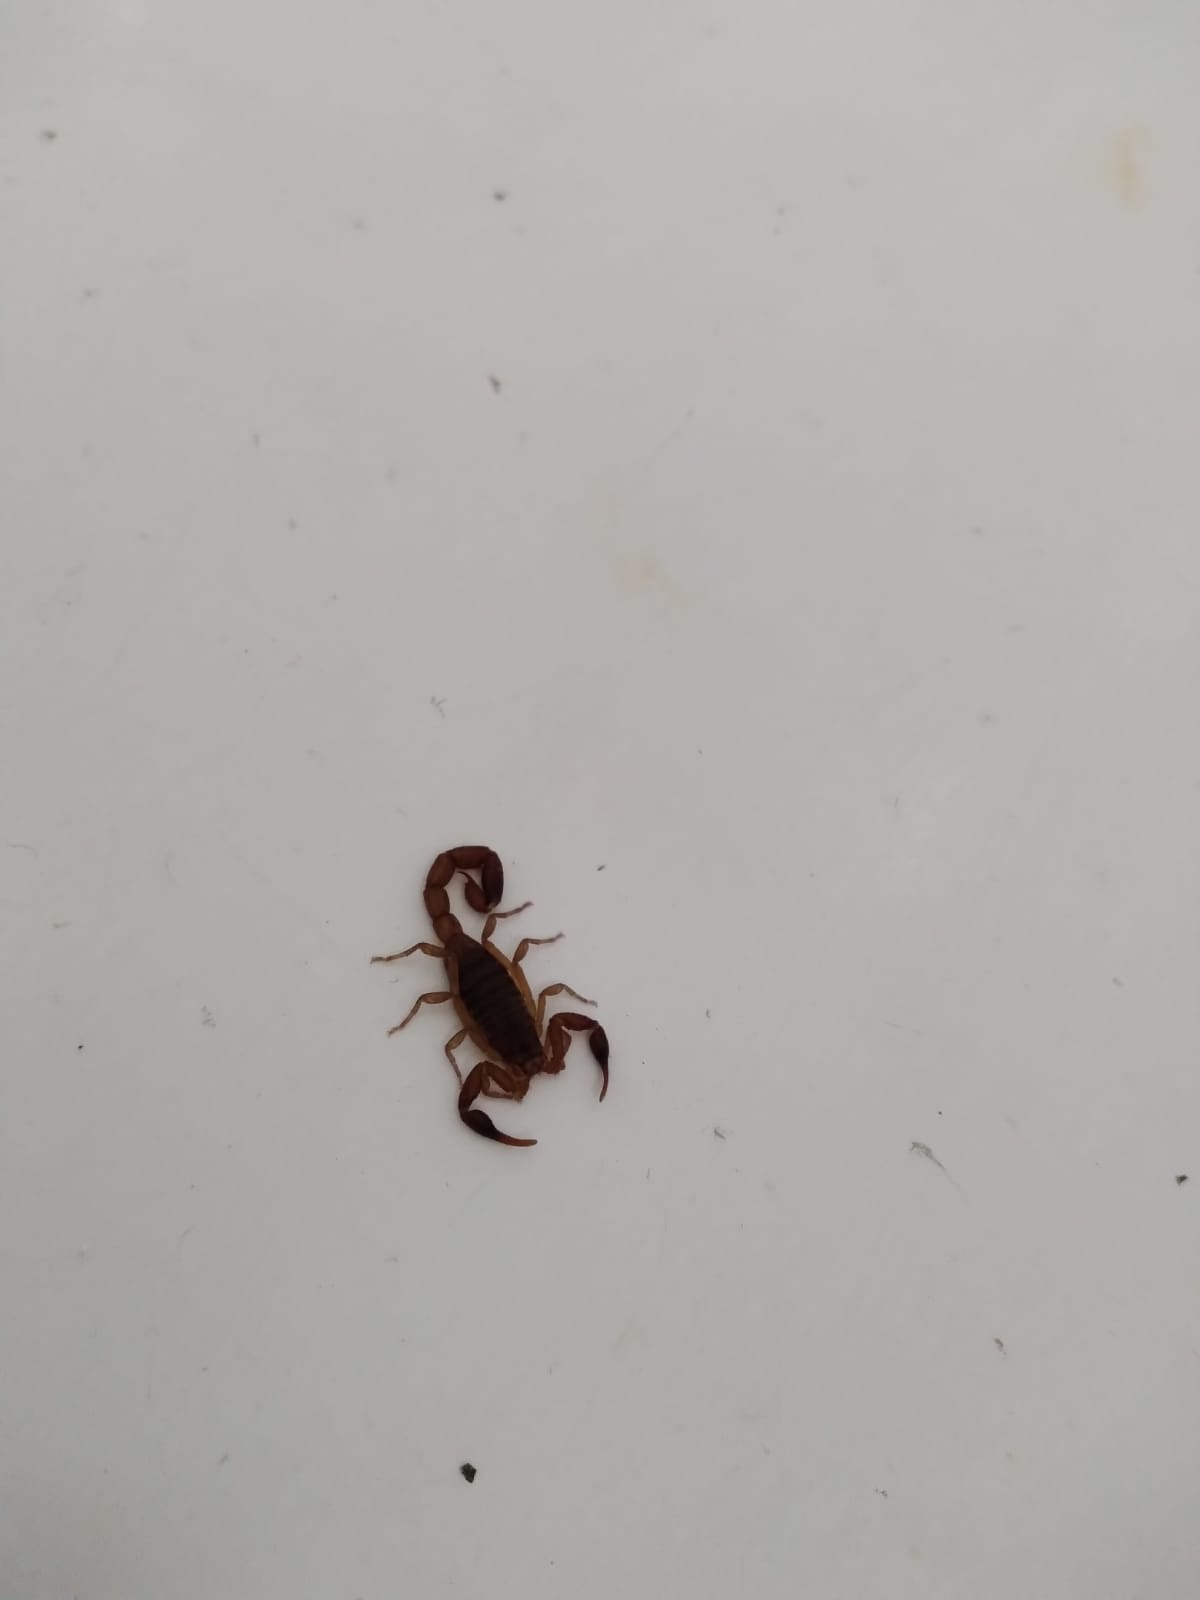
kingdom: Animalia
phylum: Arthropoda
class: Arachnida
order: Scorpiones
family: Buthidae
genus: Pseudolychas
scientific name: Pseudolychas ochraceus
